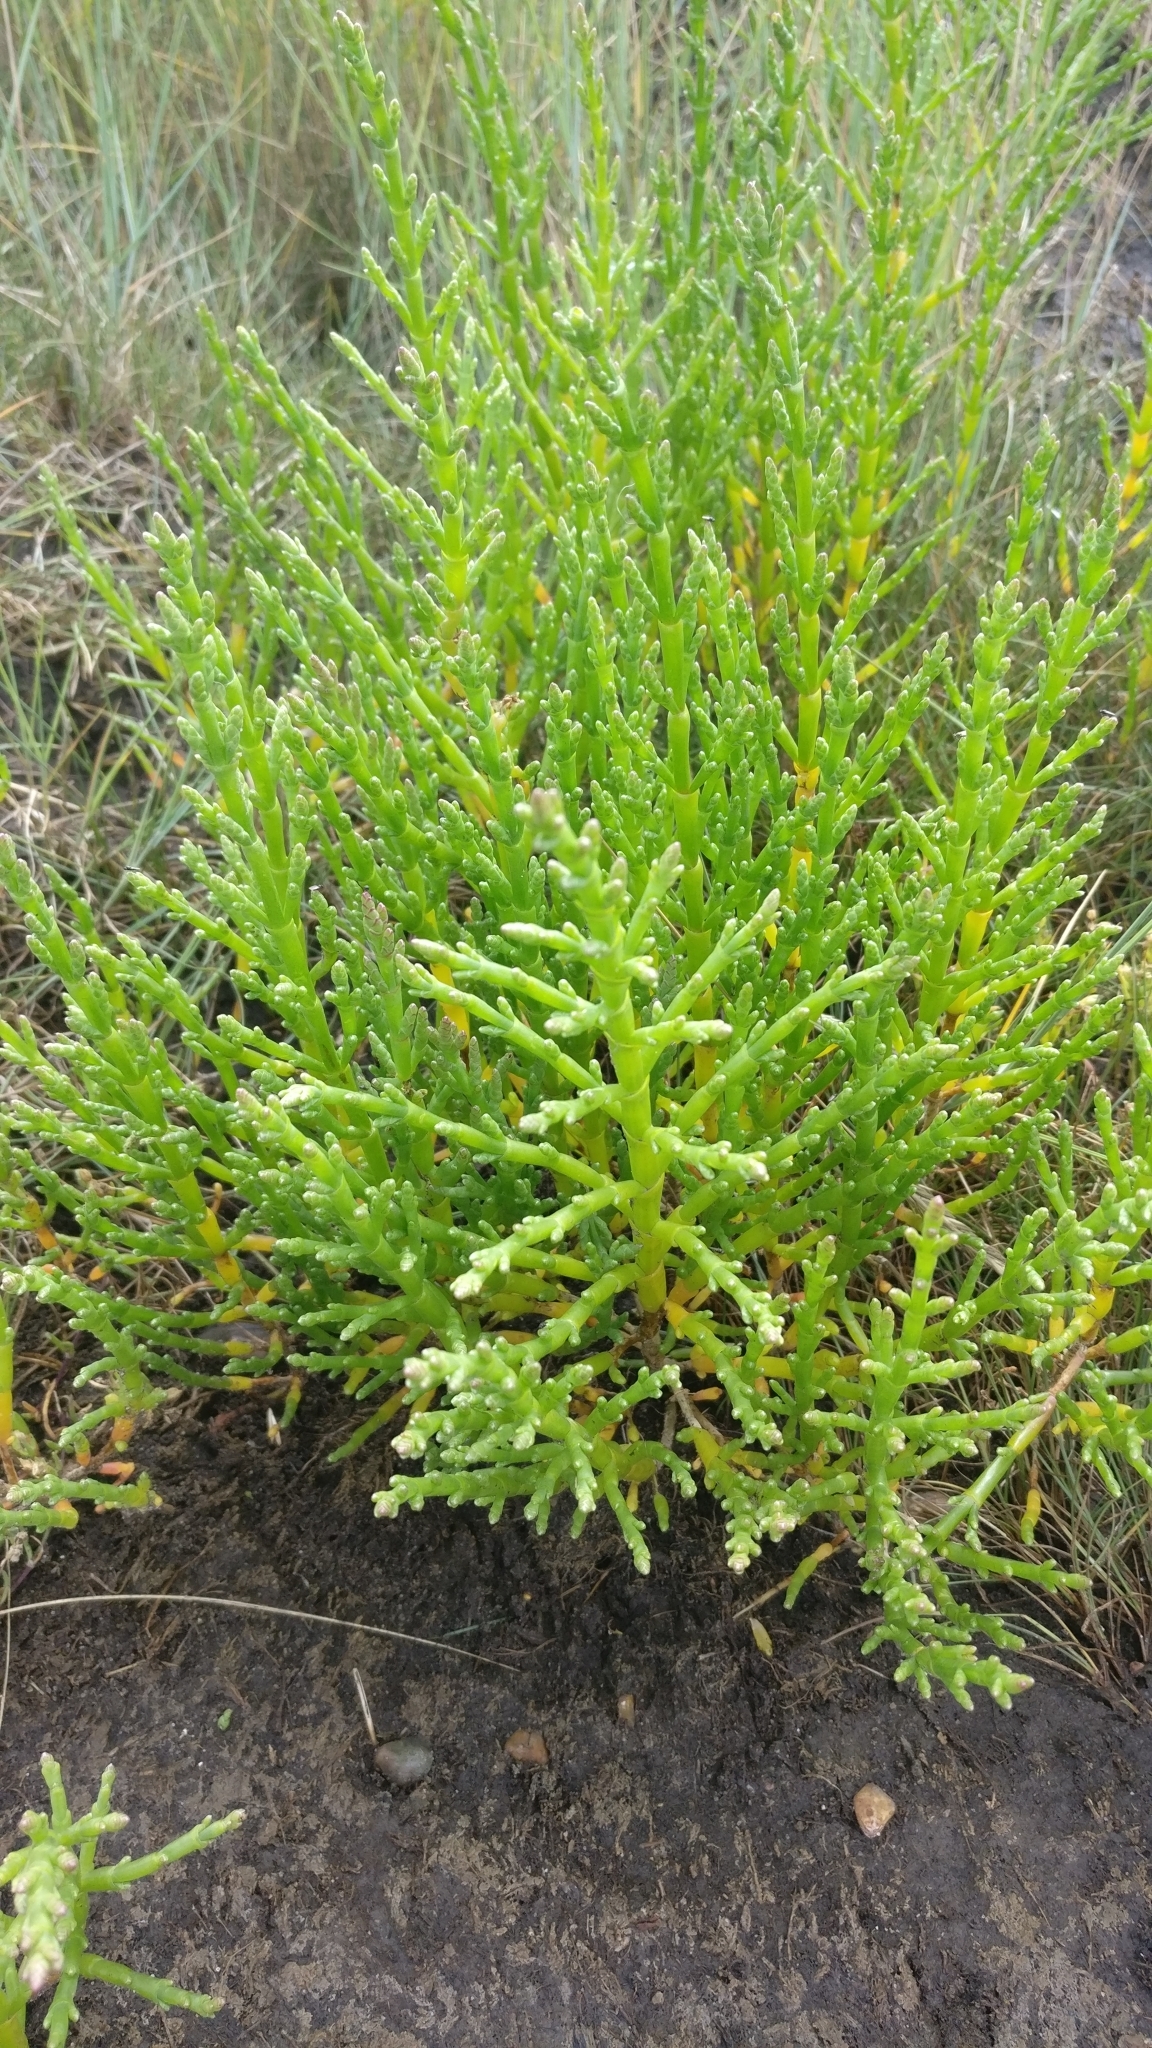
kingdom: Plantae
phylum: Tracheophyta
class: Magnoliopsida
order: Caryophyllales
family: Amaranthaceae
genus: Salicornia
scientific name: Salicornia europaea
